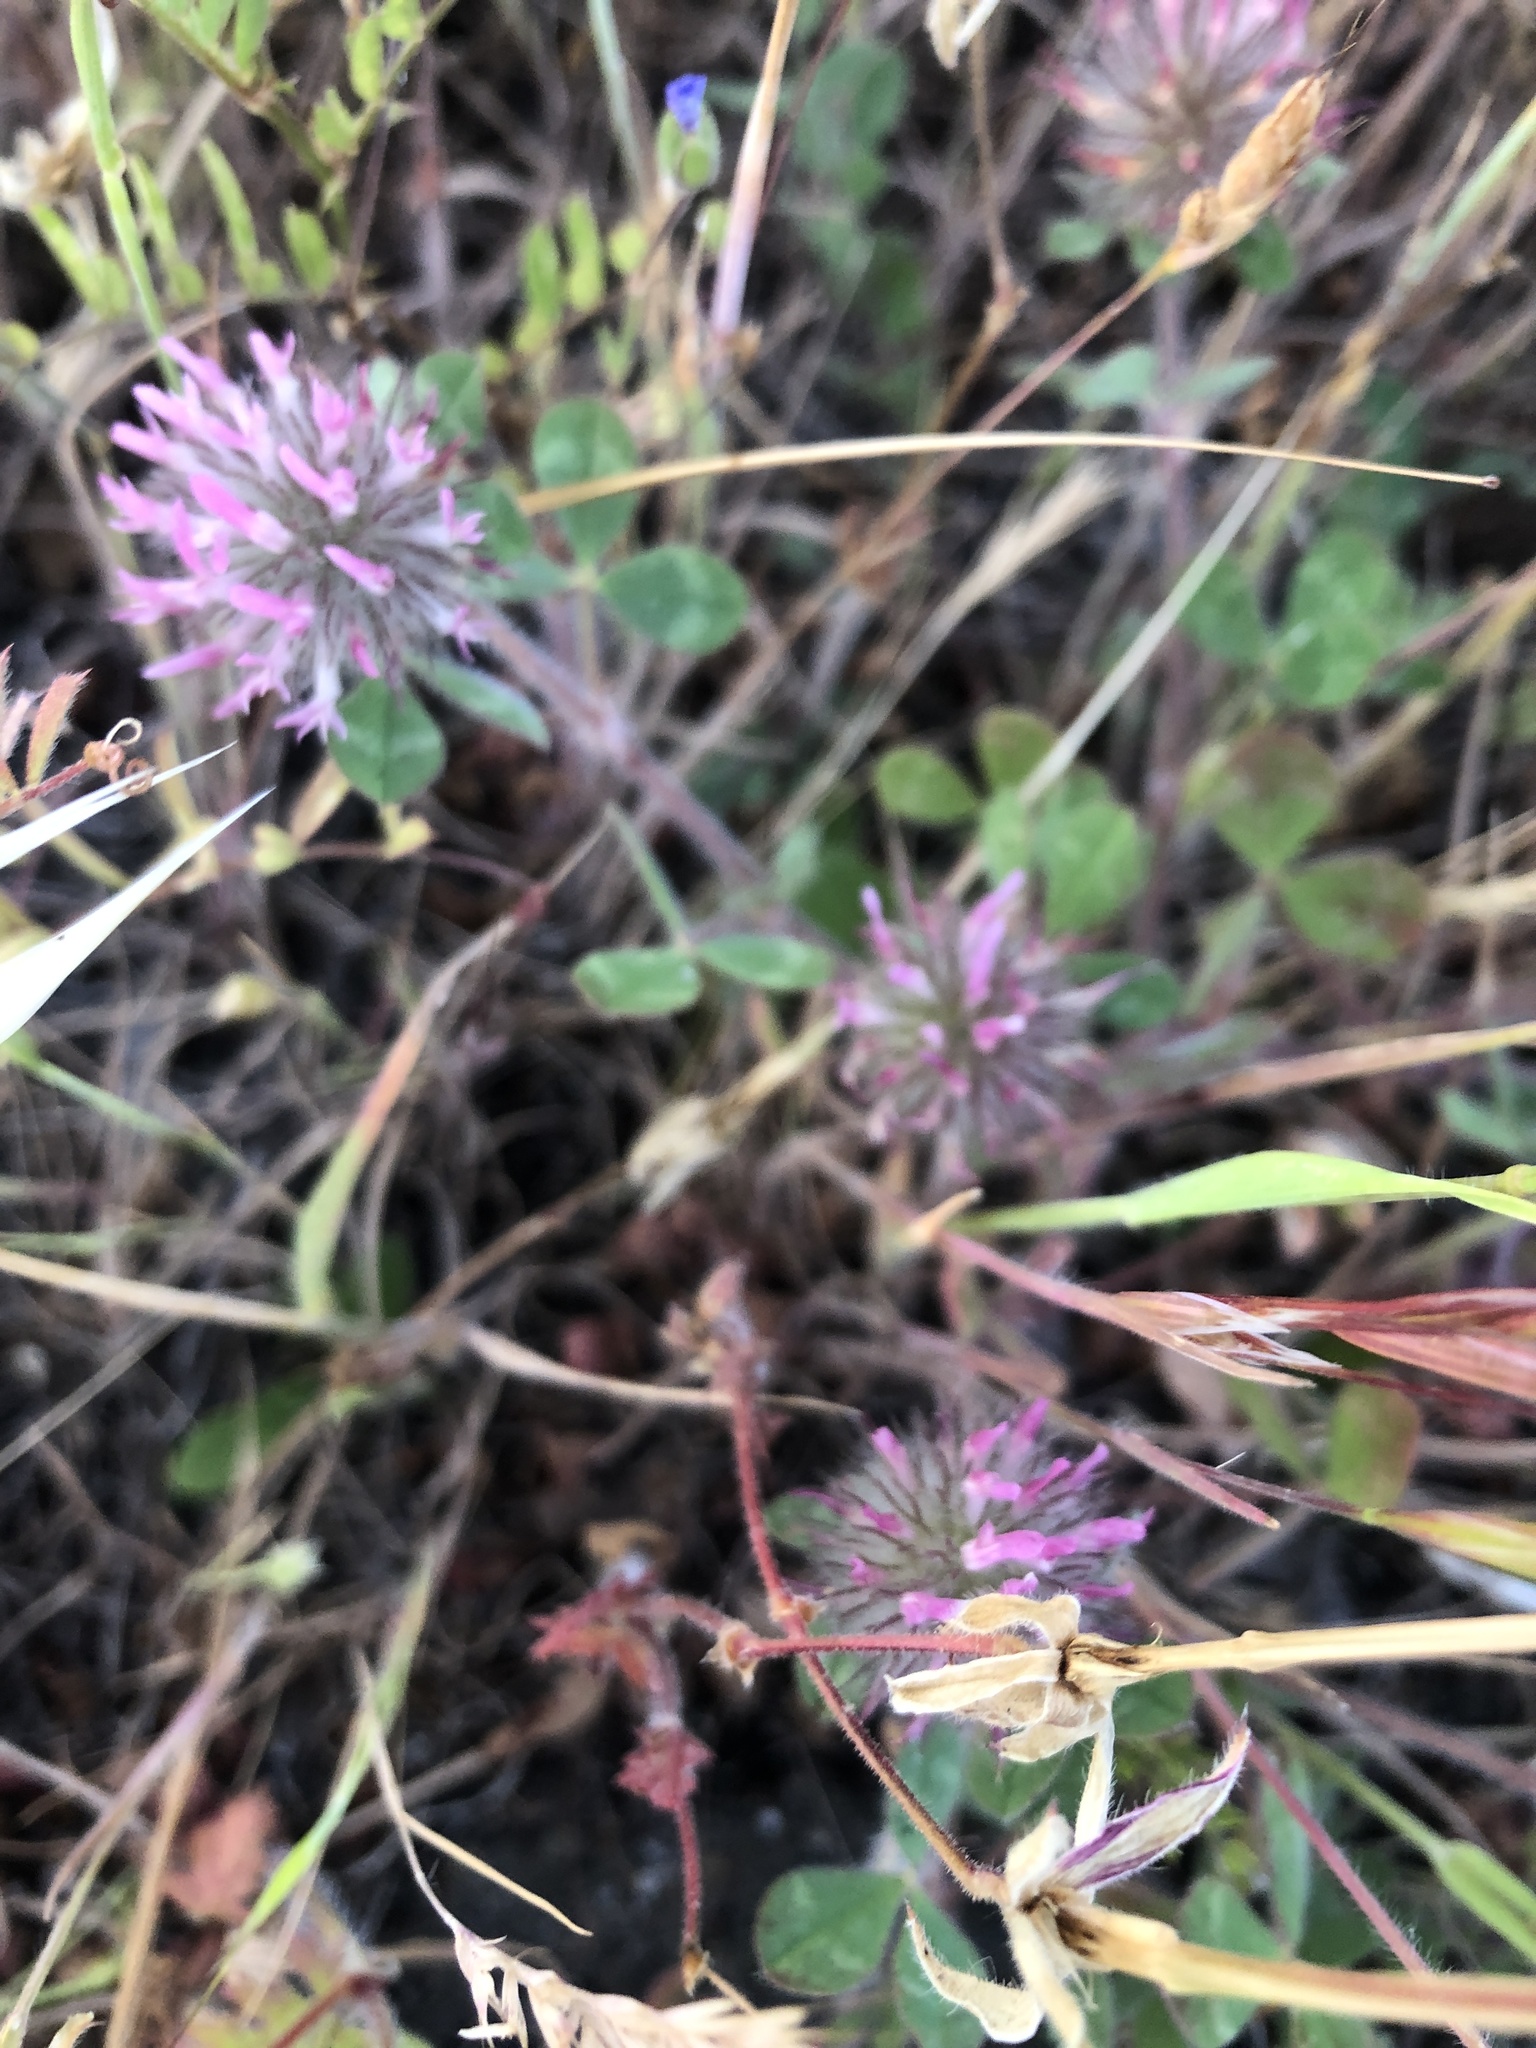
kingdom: Plantae
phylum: Tracheophyta
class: Magnoliopsida
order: Fabales
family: Fabaceae
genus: Trifolium
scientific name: Trifolium hirtum
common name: Rose clover
